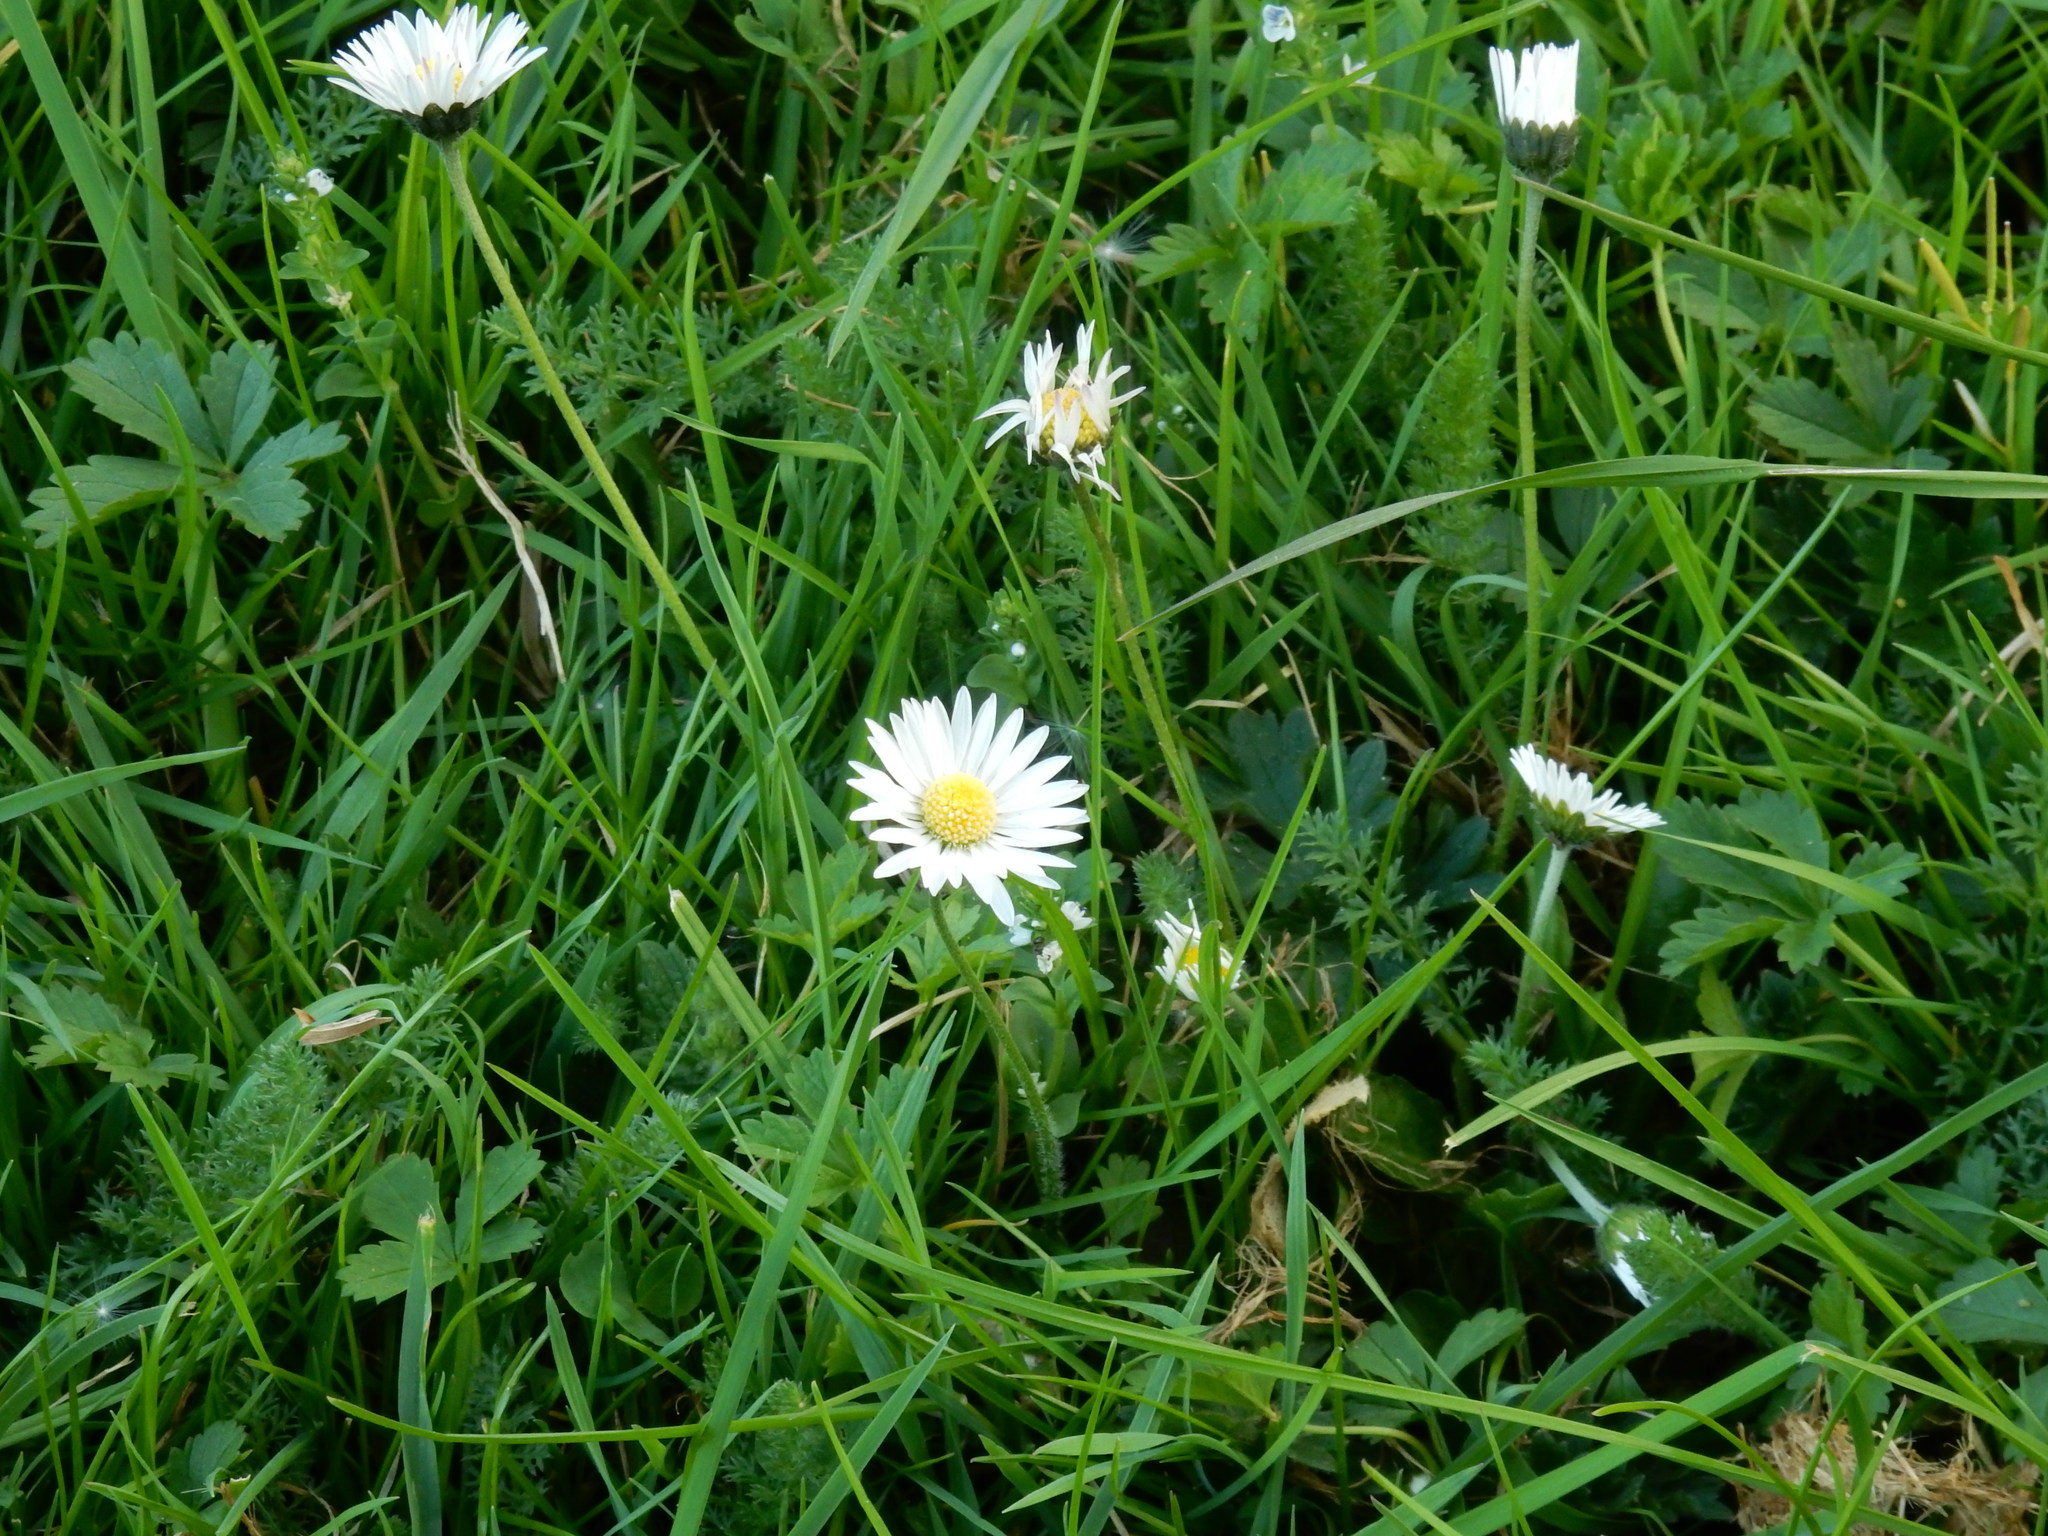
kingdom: Plantae
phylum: Tracheophyta
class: Magnoliopsida
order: Asterales
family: Asteraceae
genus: Bellis
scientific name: Bellis perennis
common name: Lawndaisy
